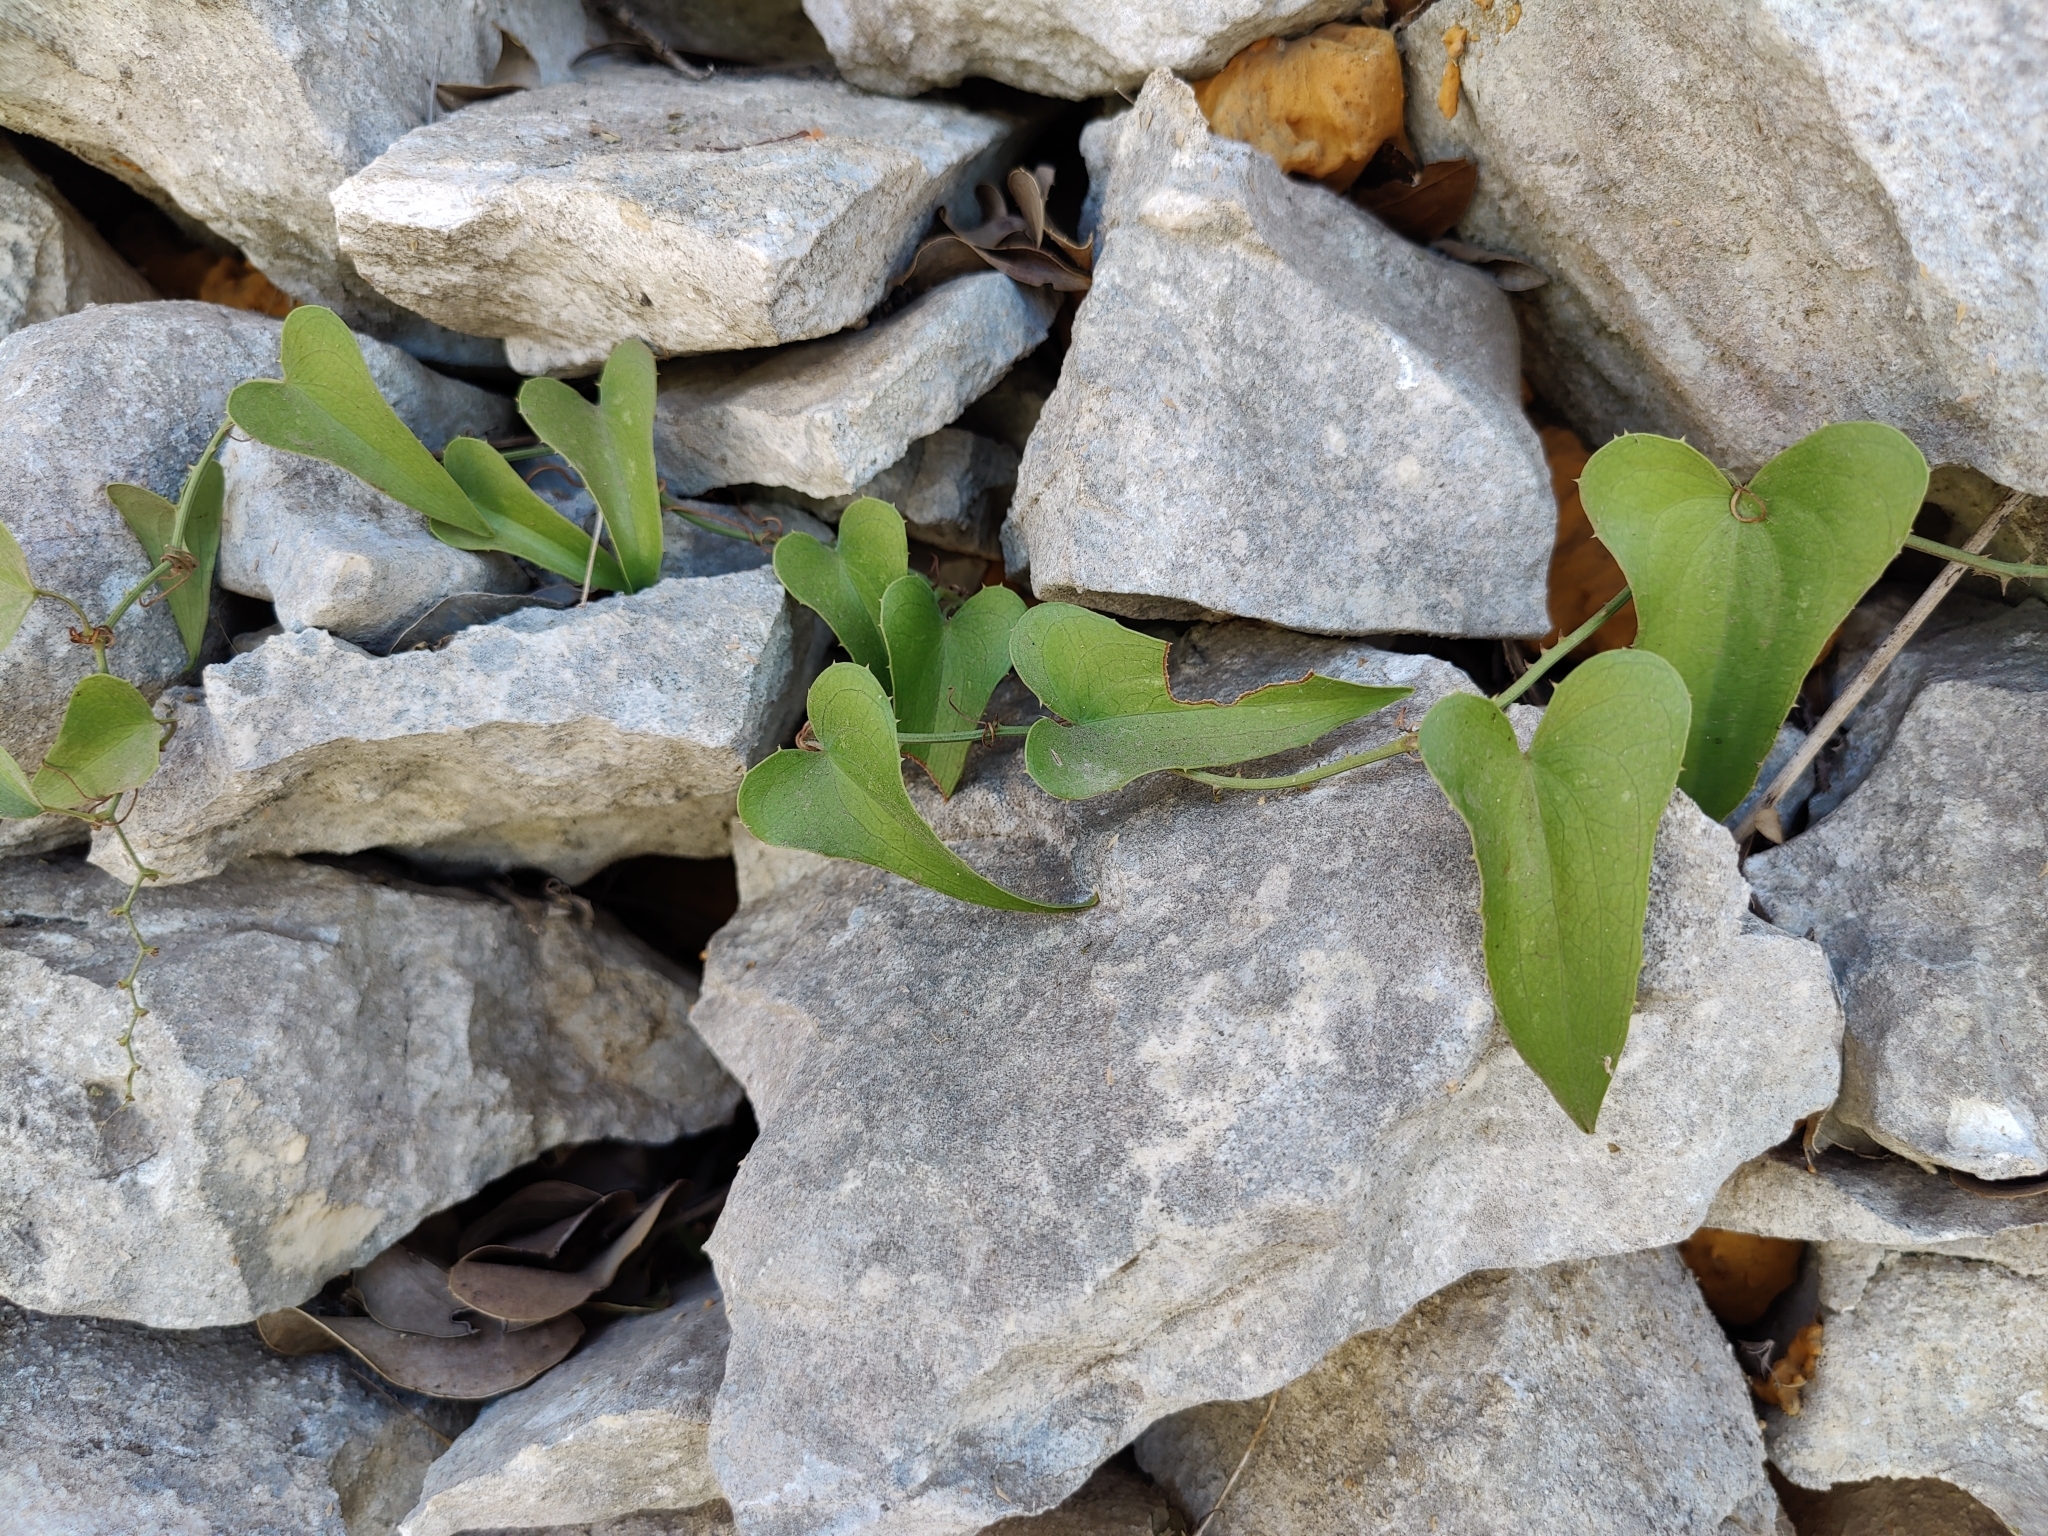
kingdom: Plantae
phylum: Tracheophyta
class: Liliopsida
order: Liliales
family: Smilacaceae
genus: Smilax
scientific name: Smilax aspera
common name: Common smilax
